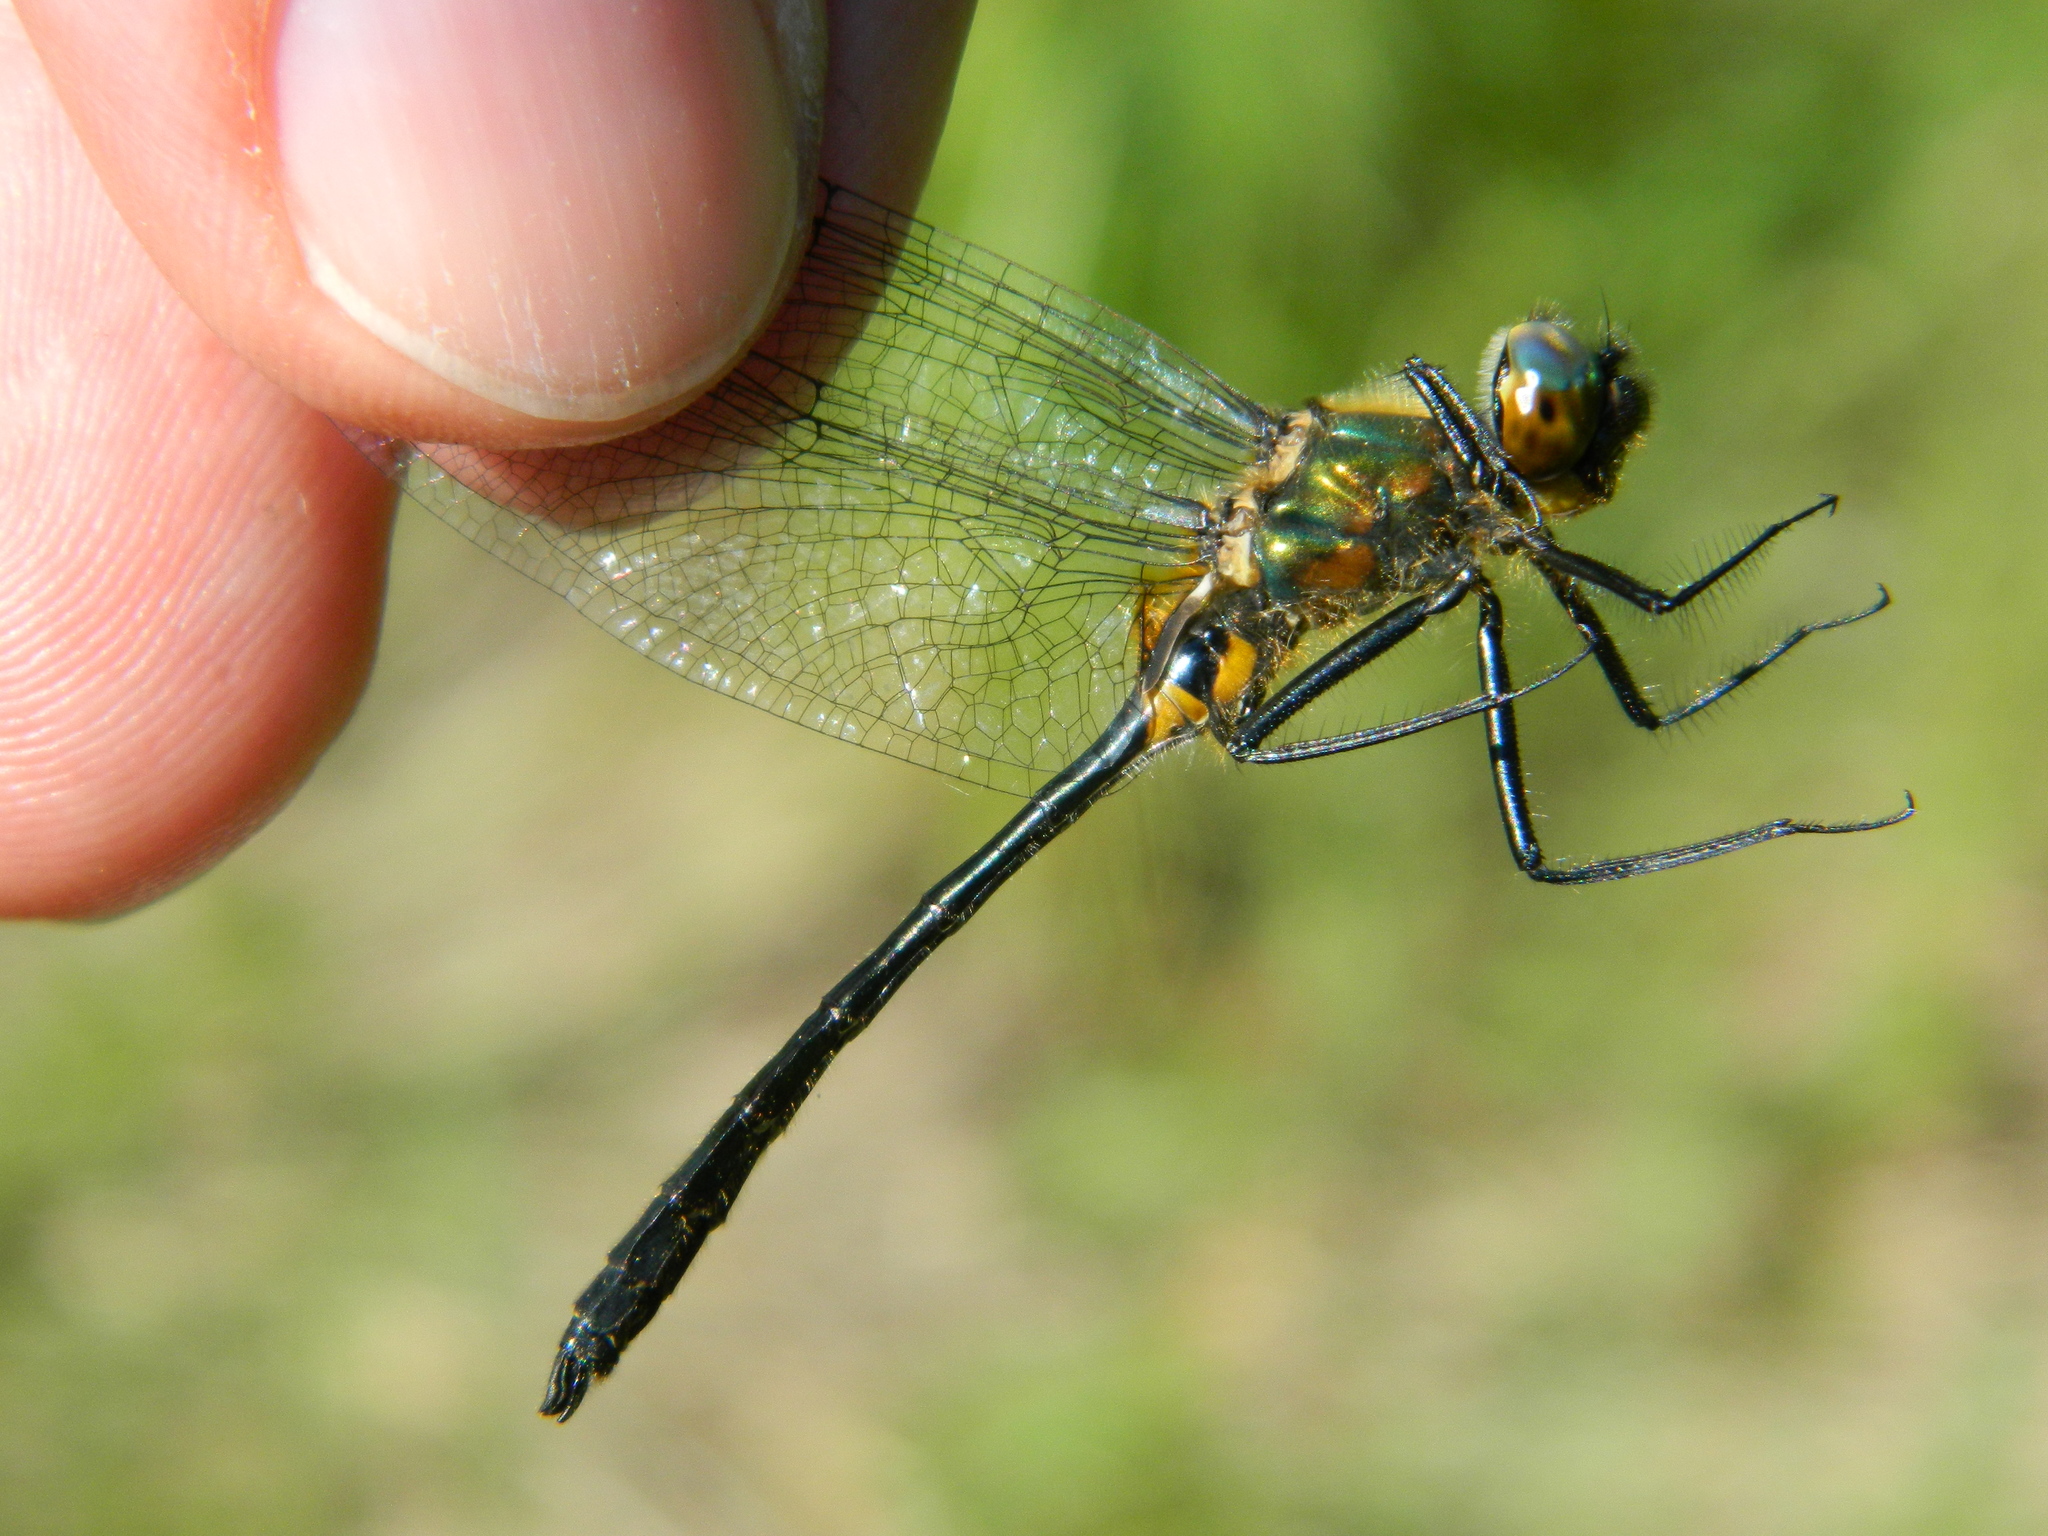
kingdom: Animalia
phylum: Arthropoda
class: Insecta
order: Odonata
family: Corduliidae
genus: Dorocordulia
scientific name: Dorocordulia libera
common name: Racket-tailed emerald
